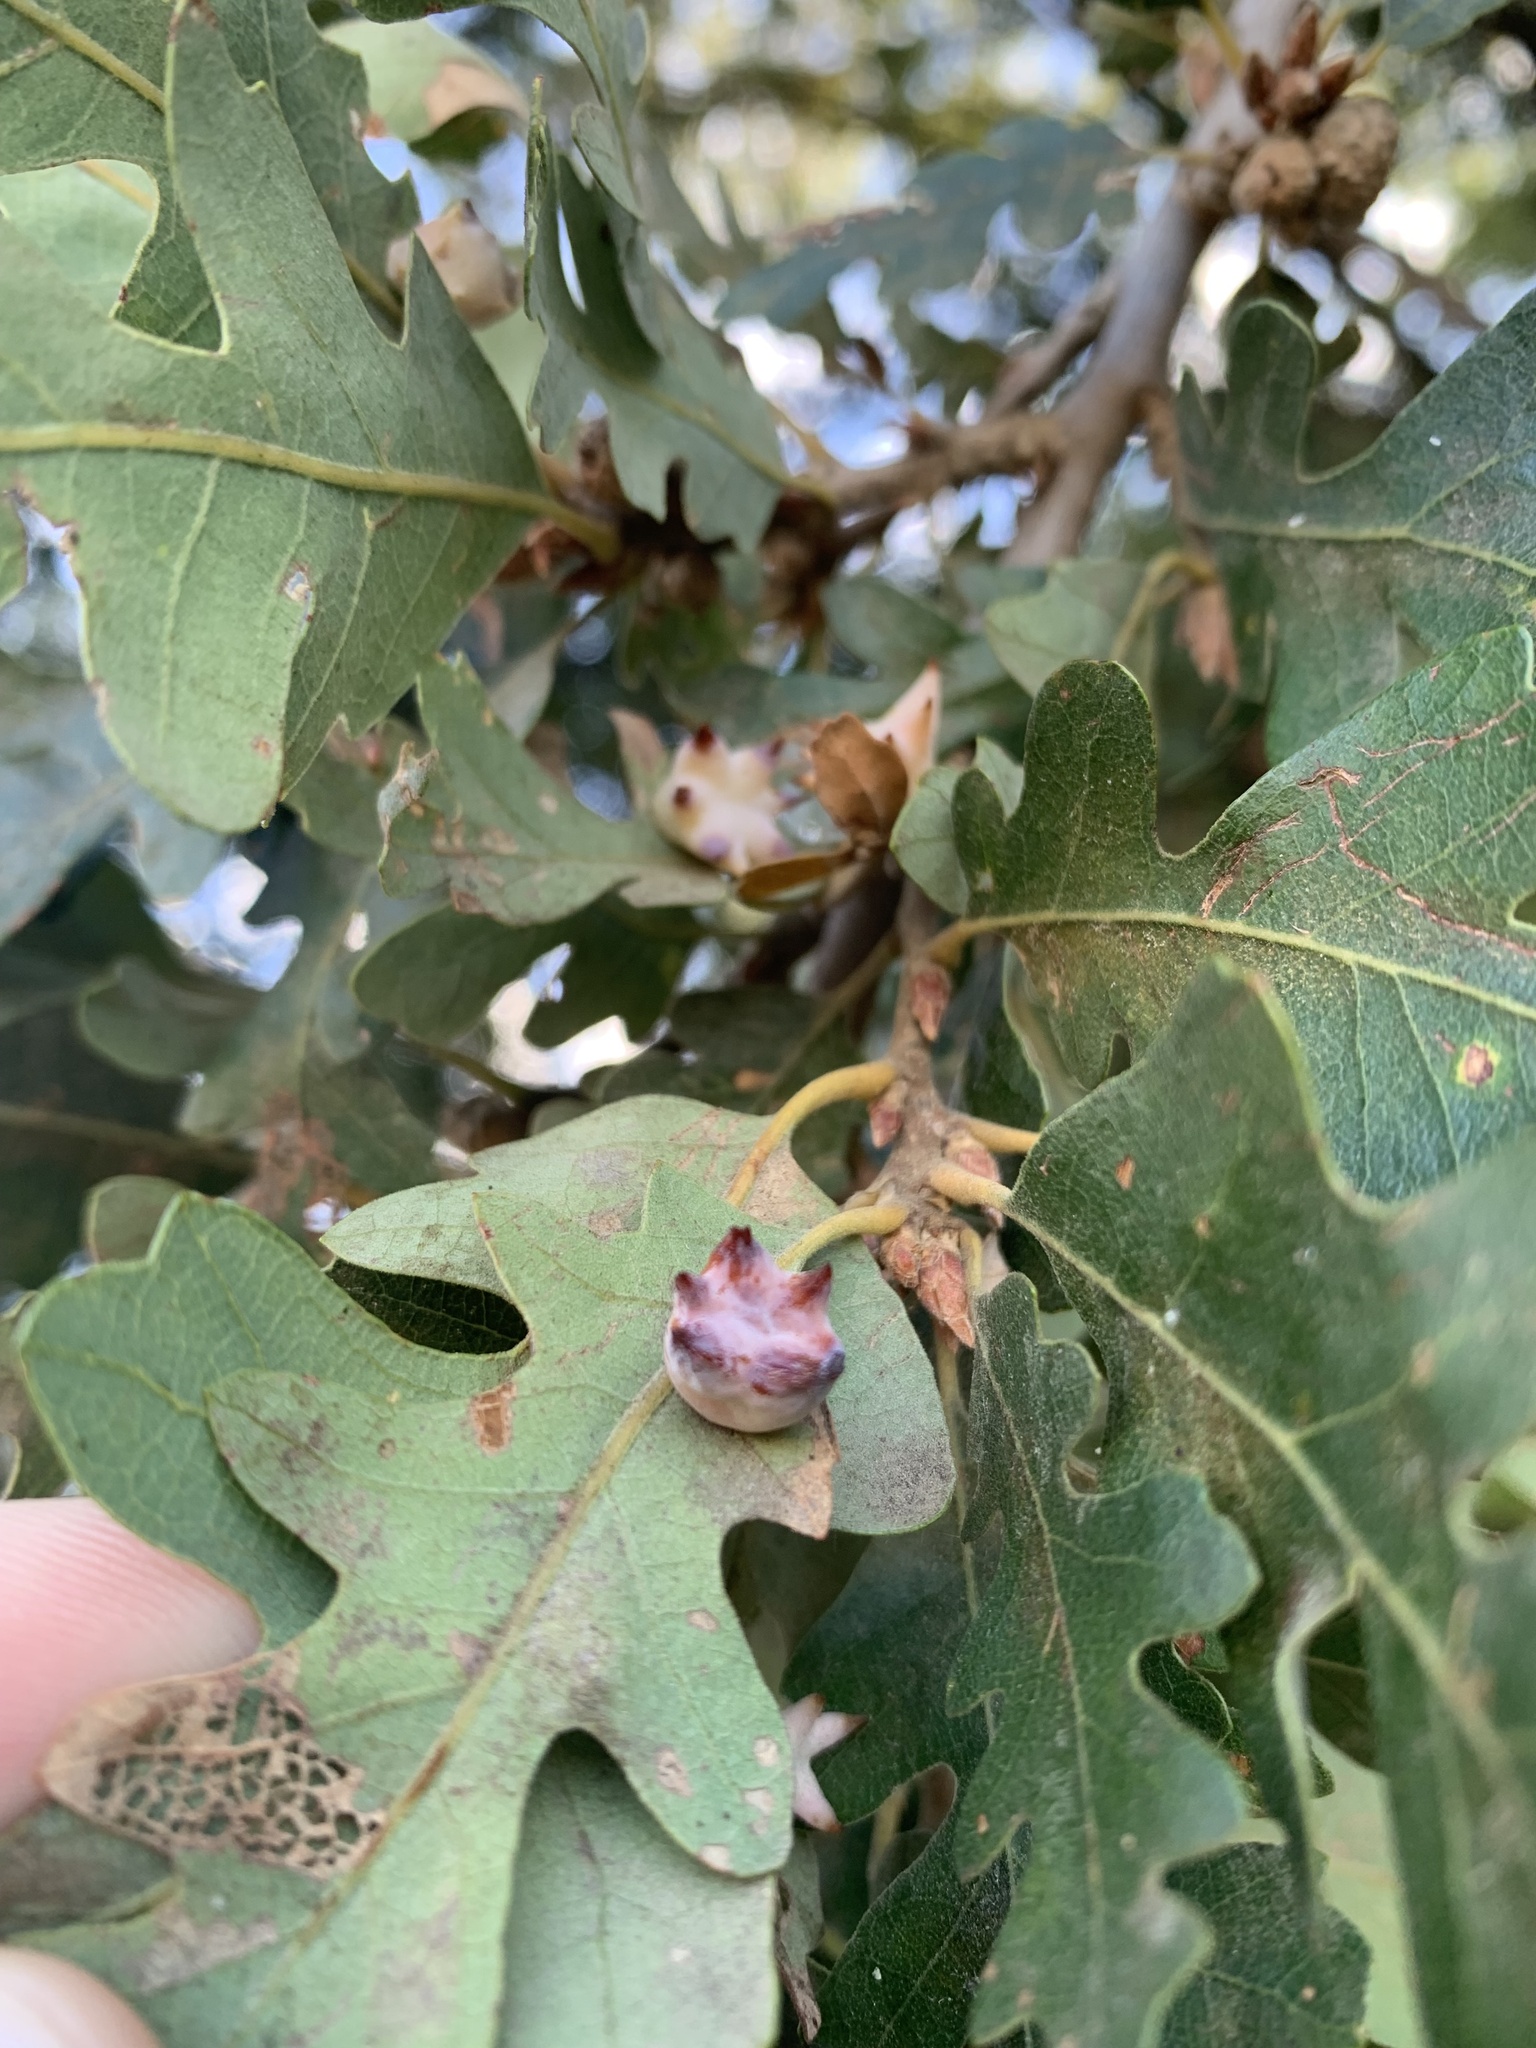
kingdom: Animalia
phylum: Arthropoda
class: Insecta
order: Hymenoptera
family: Cynipidae
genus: Cynips
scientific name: Cynips douglasi
